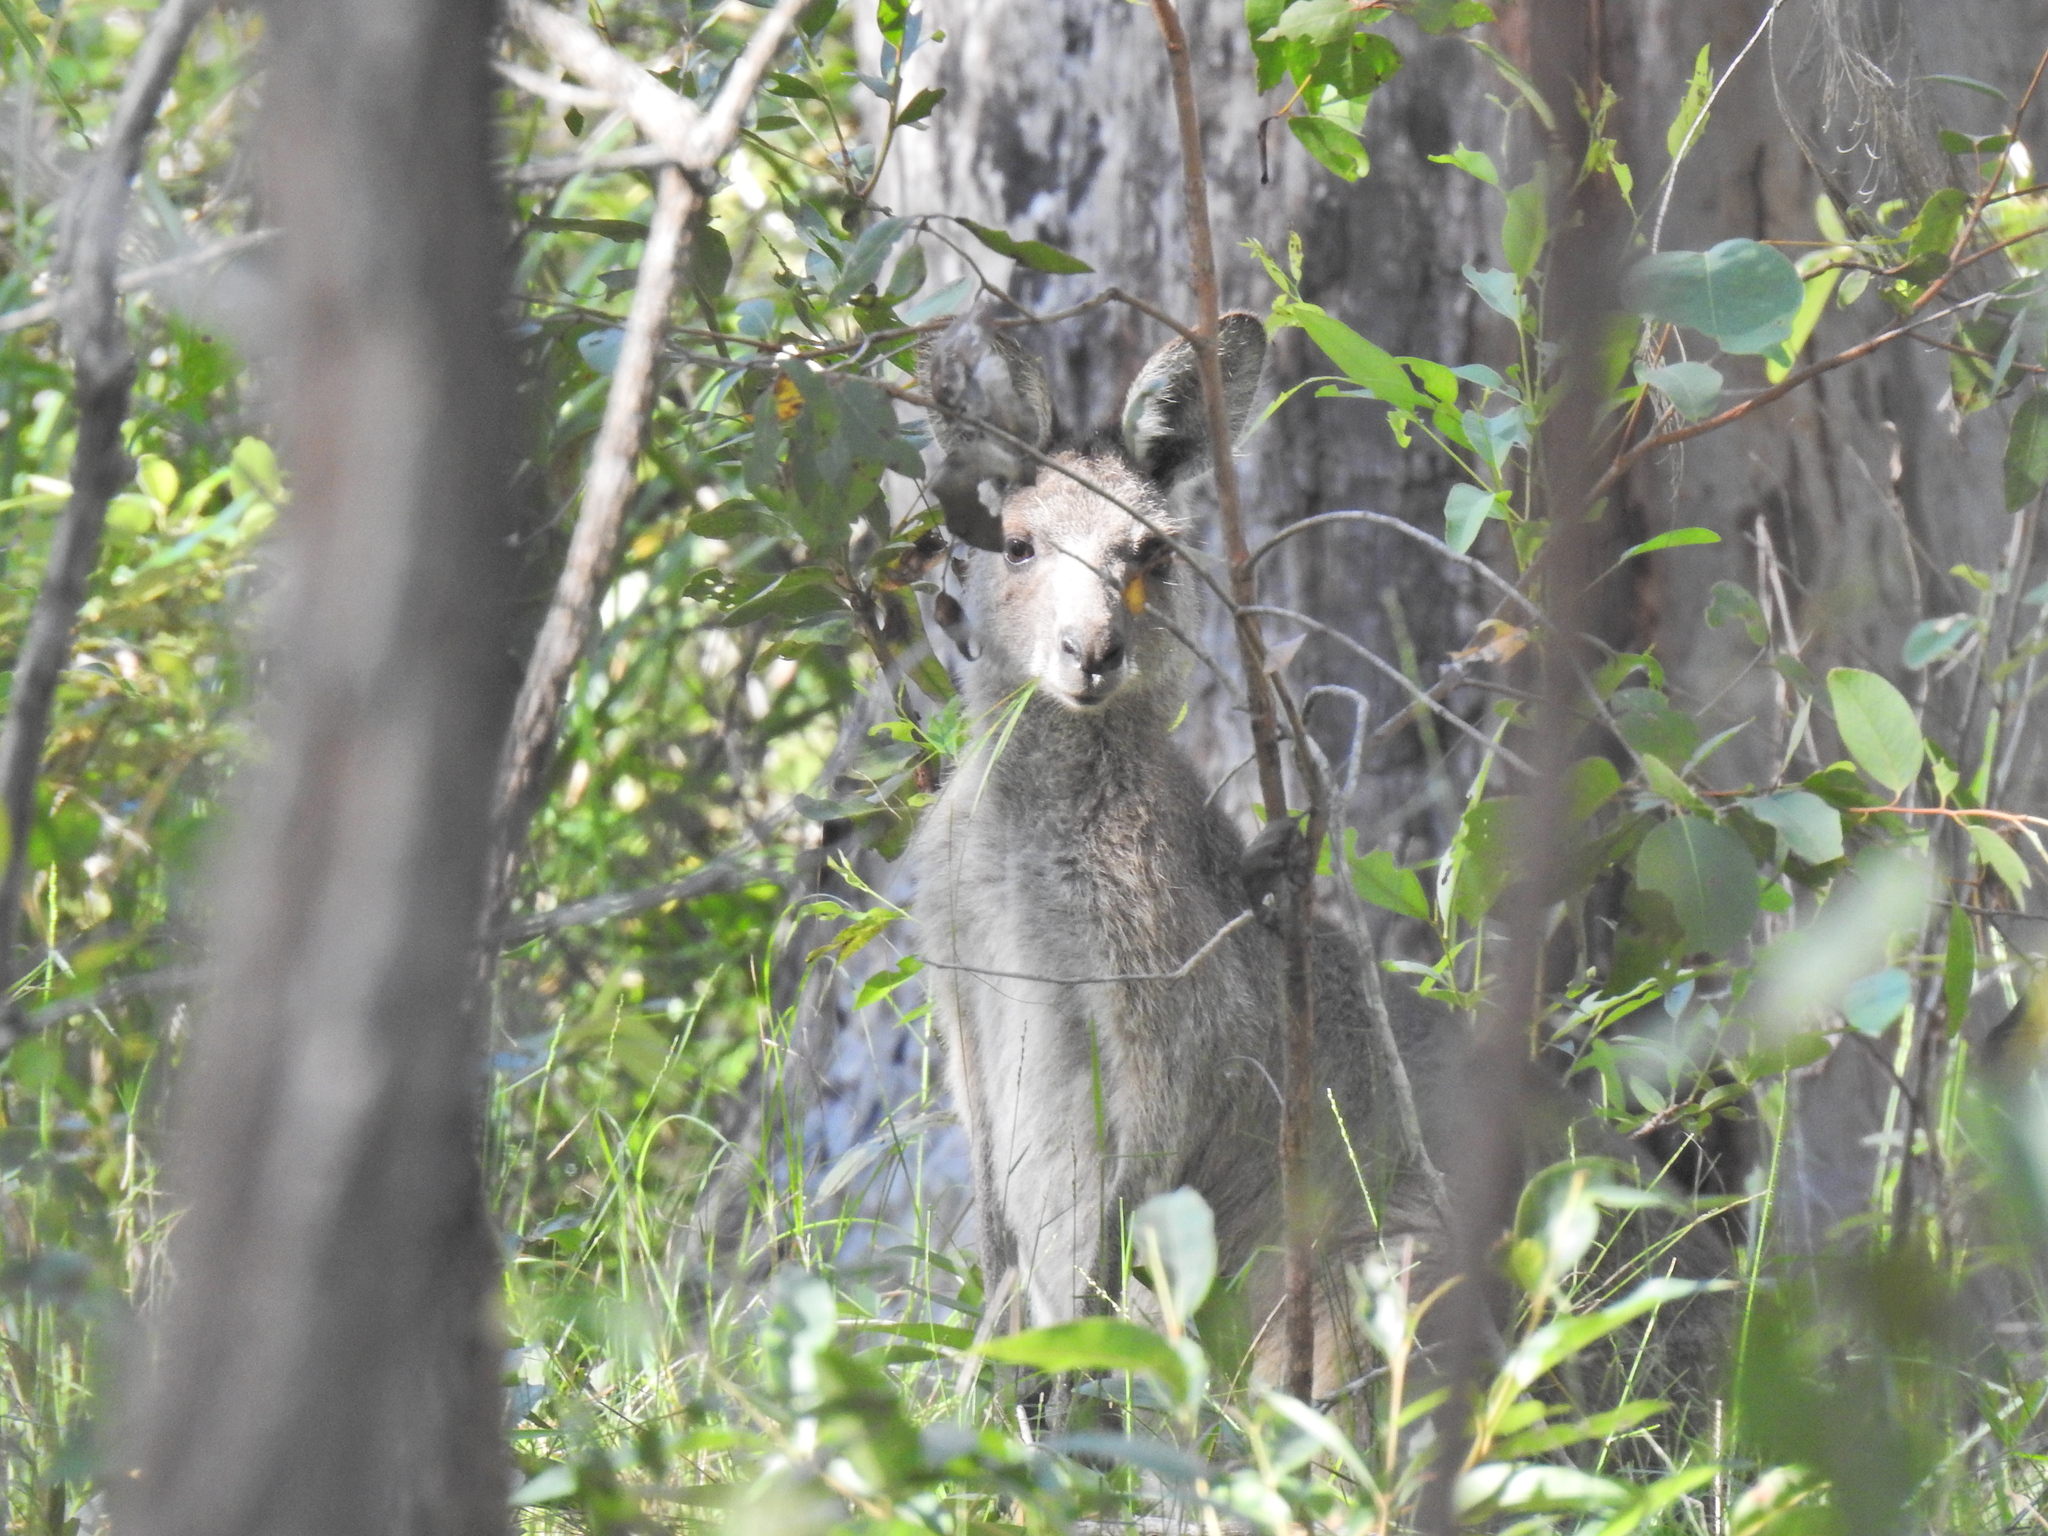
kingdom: Animalia
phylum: Chordata
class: Mammalia
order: Diprotodontia
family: Macropodidae
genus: Macropus
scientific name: Macropus giganteus
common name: Eastern grey kangaroo
